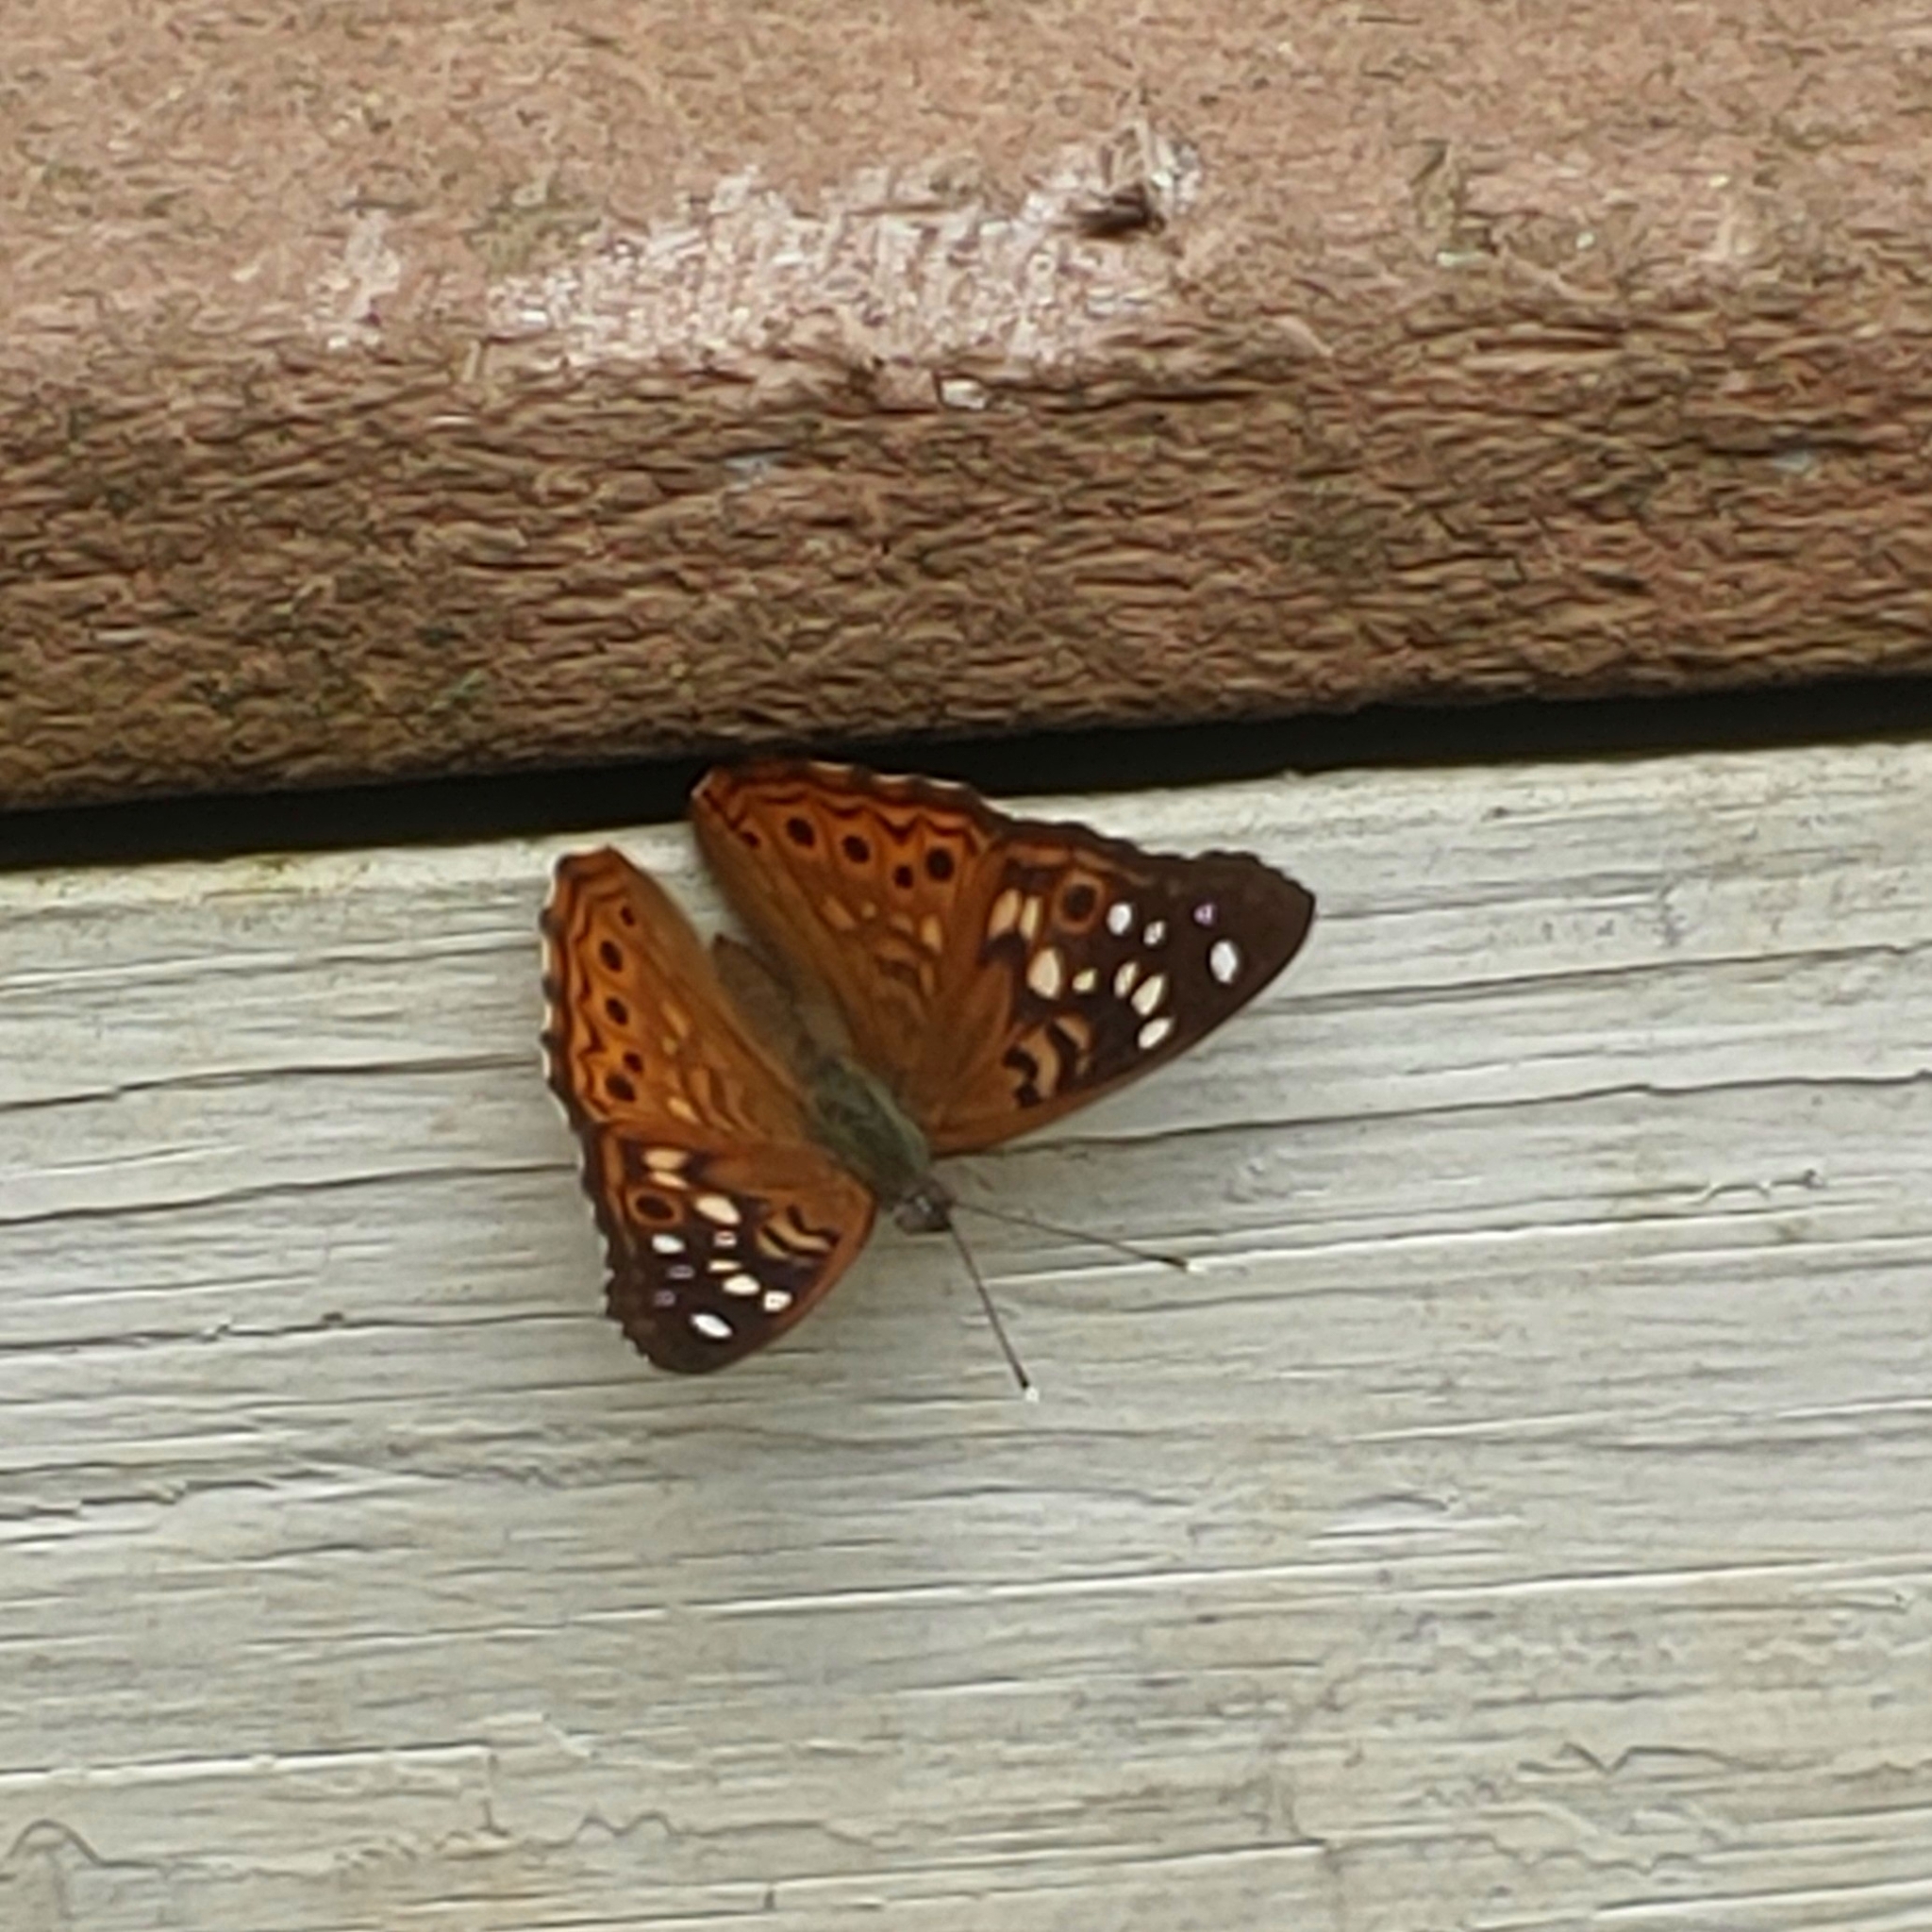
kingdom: Animalia
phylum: Arthropoda
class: Insecta
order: Lepidoptera
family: Nymphalidae
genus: Asterocampa
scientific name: Asterocampa celtis
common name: Hackberry emperor
